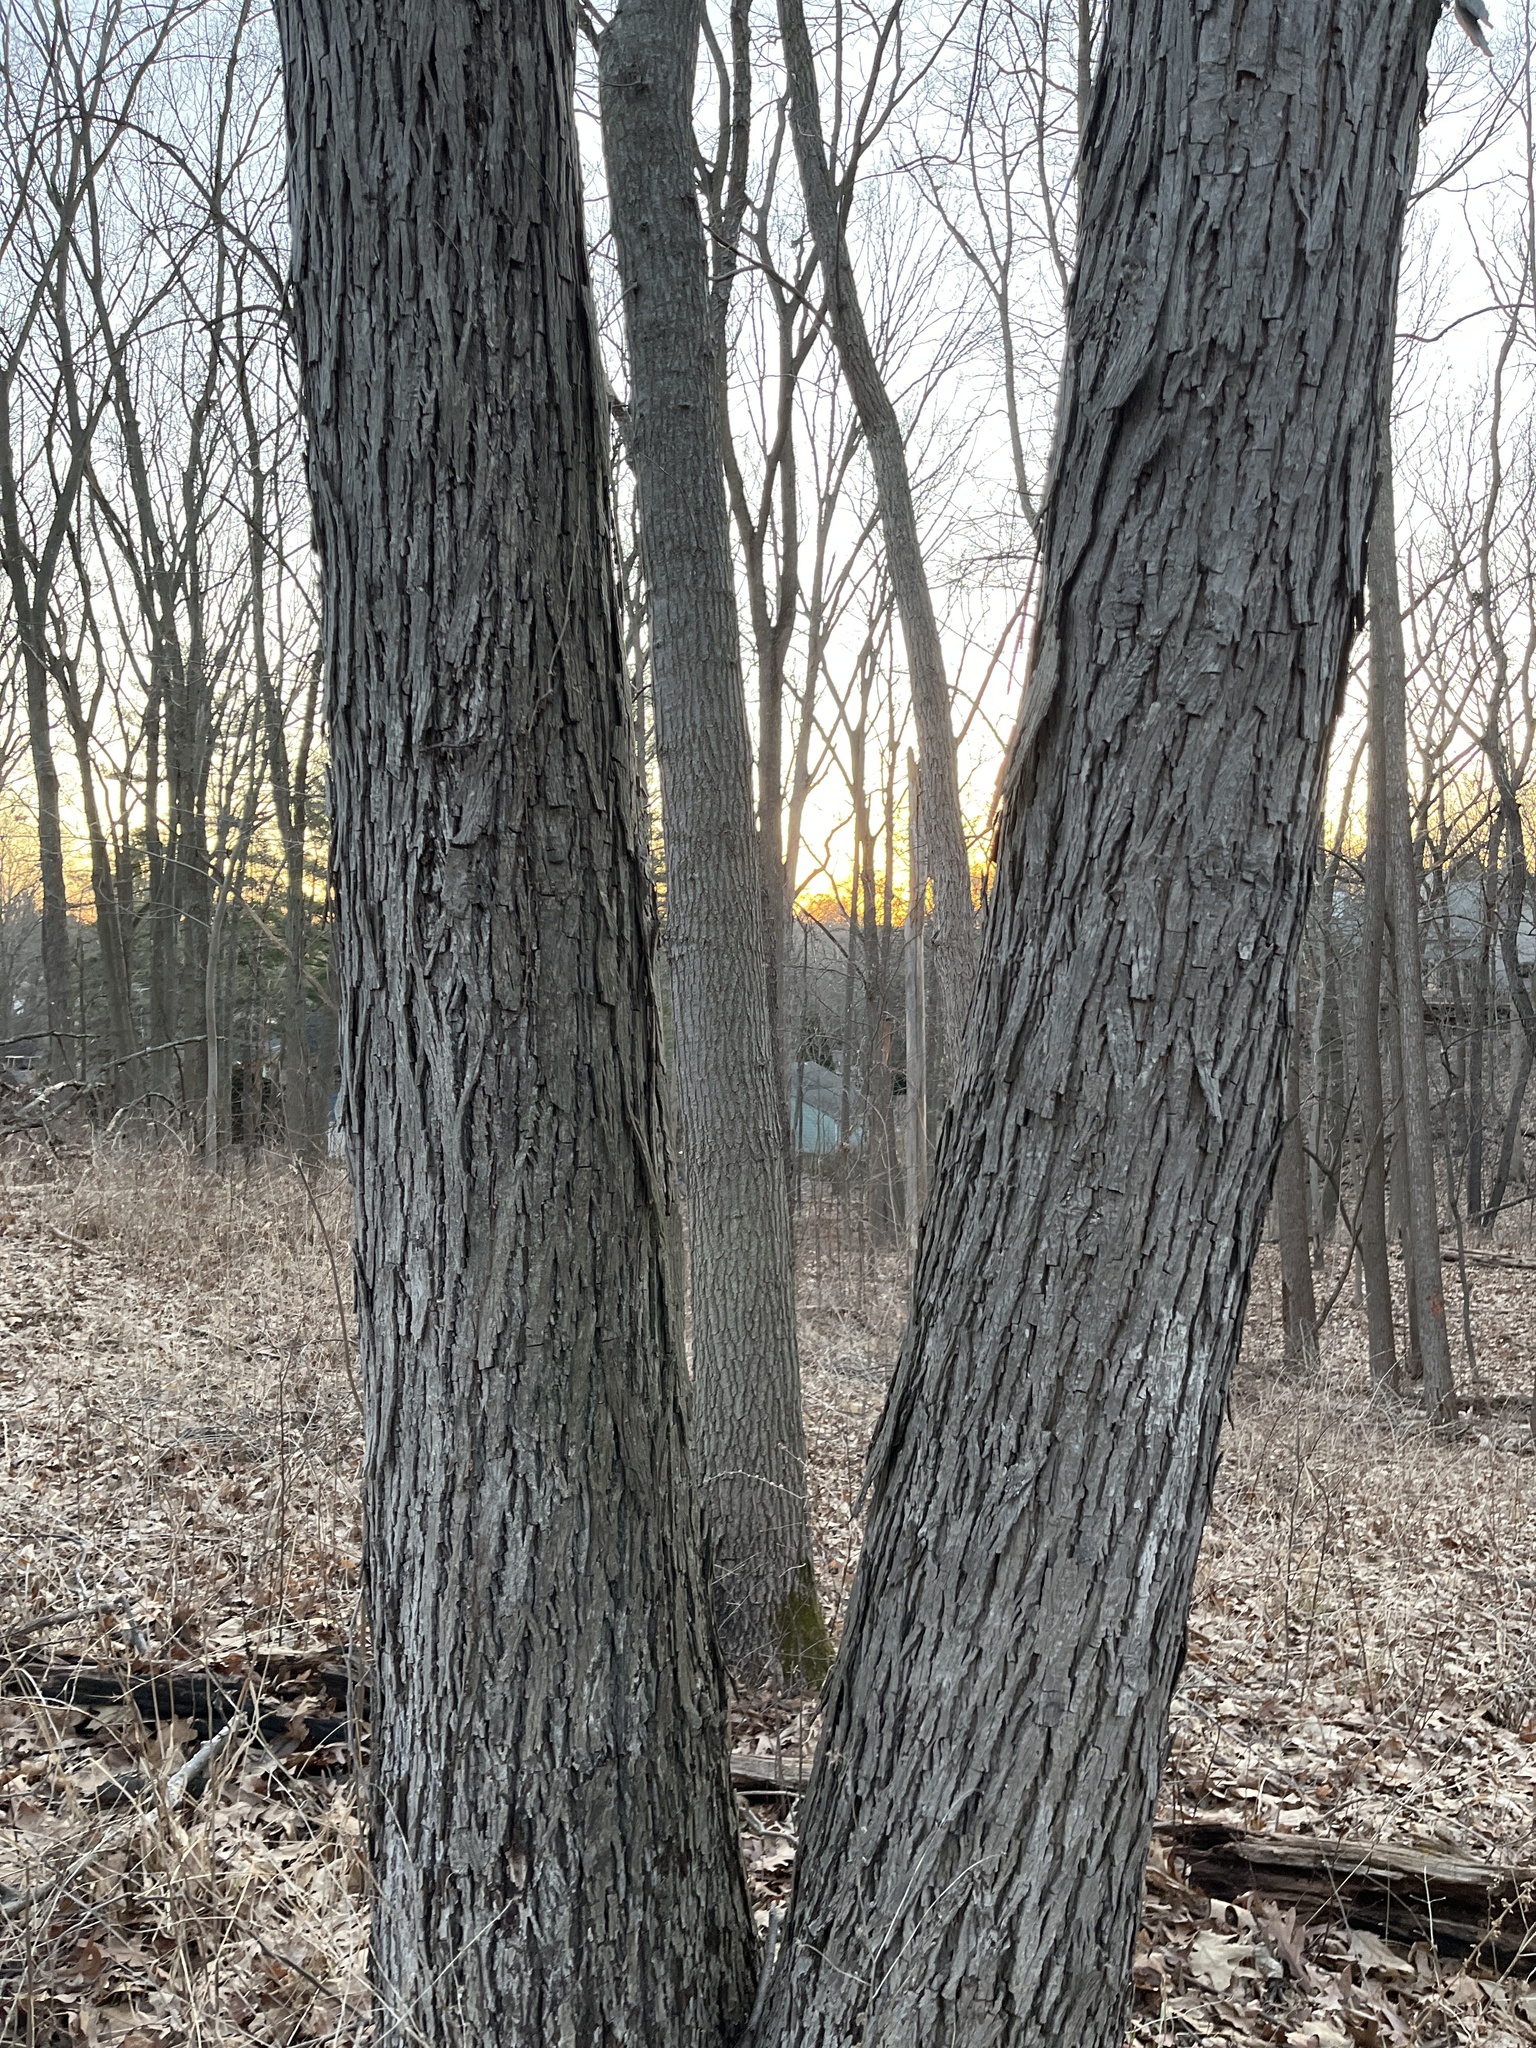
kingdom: Plantae
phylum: Tracheophyta
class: Magnoliopsida
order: Fagales
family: Juglandaceae
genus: Carya
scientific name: Carya ovata
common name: Shagbark hickory
